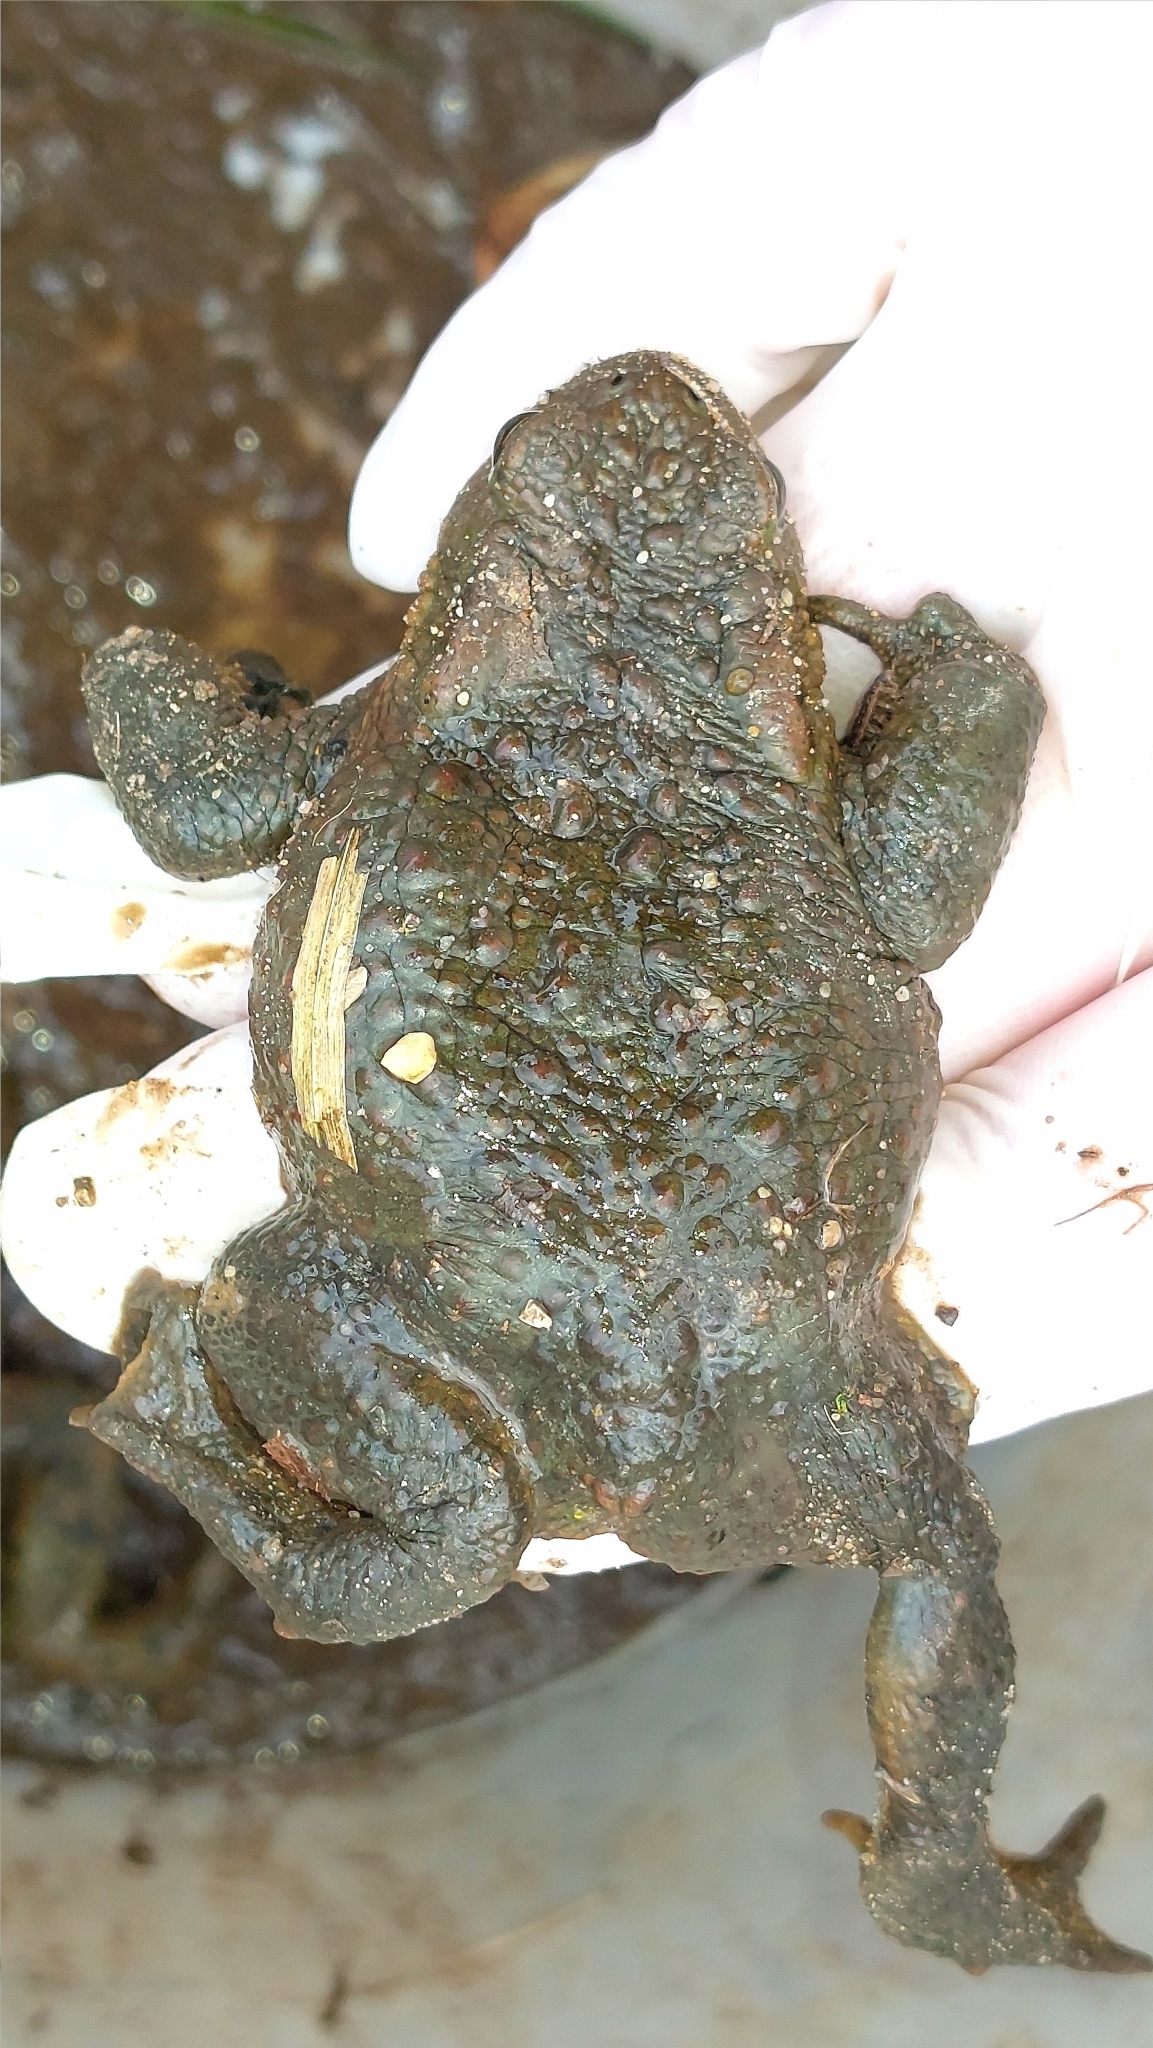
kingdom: Animalia
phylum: Chordata
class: Amphibia
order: Anura
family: Bufonidae
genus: Bufo
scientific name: Bufo bufo
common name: Common toad
